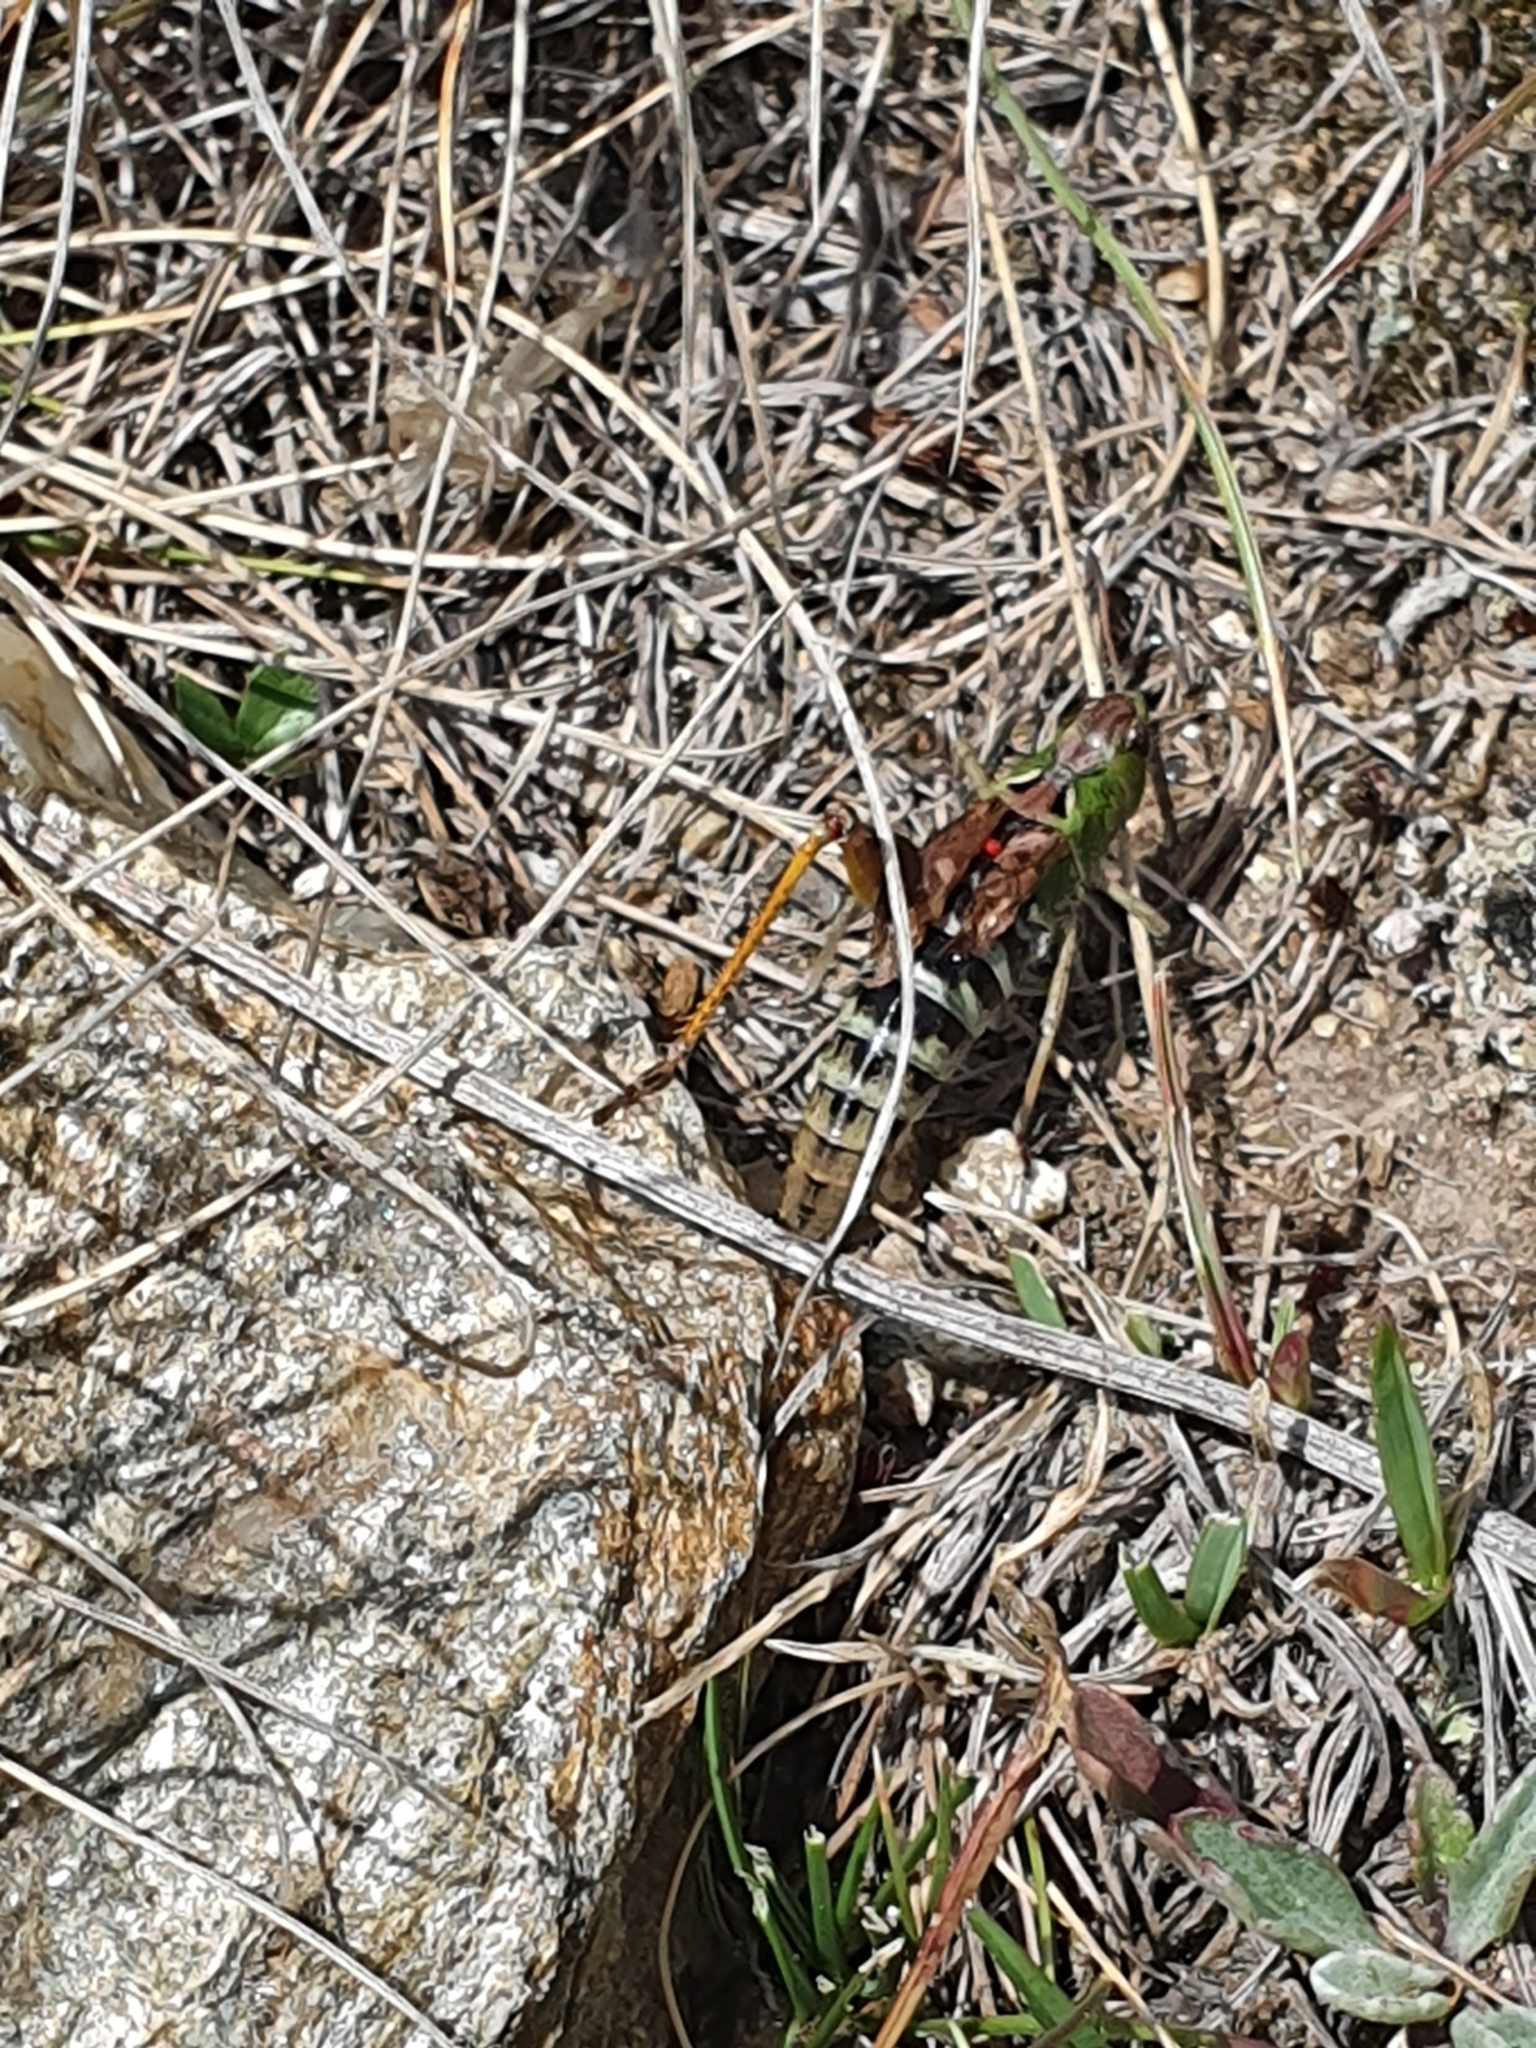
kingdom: Animalia
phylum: Arthropoda
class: Insecta
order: Orthoptera
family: Acrididae
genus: Gomphocerus
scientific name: Gomphocerus sibiricus
